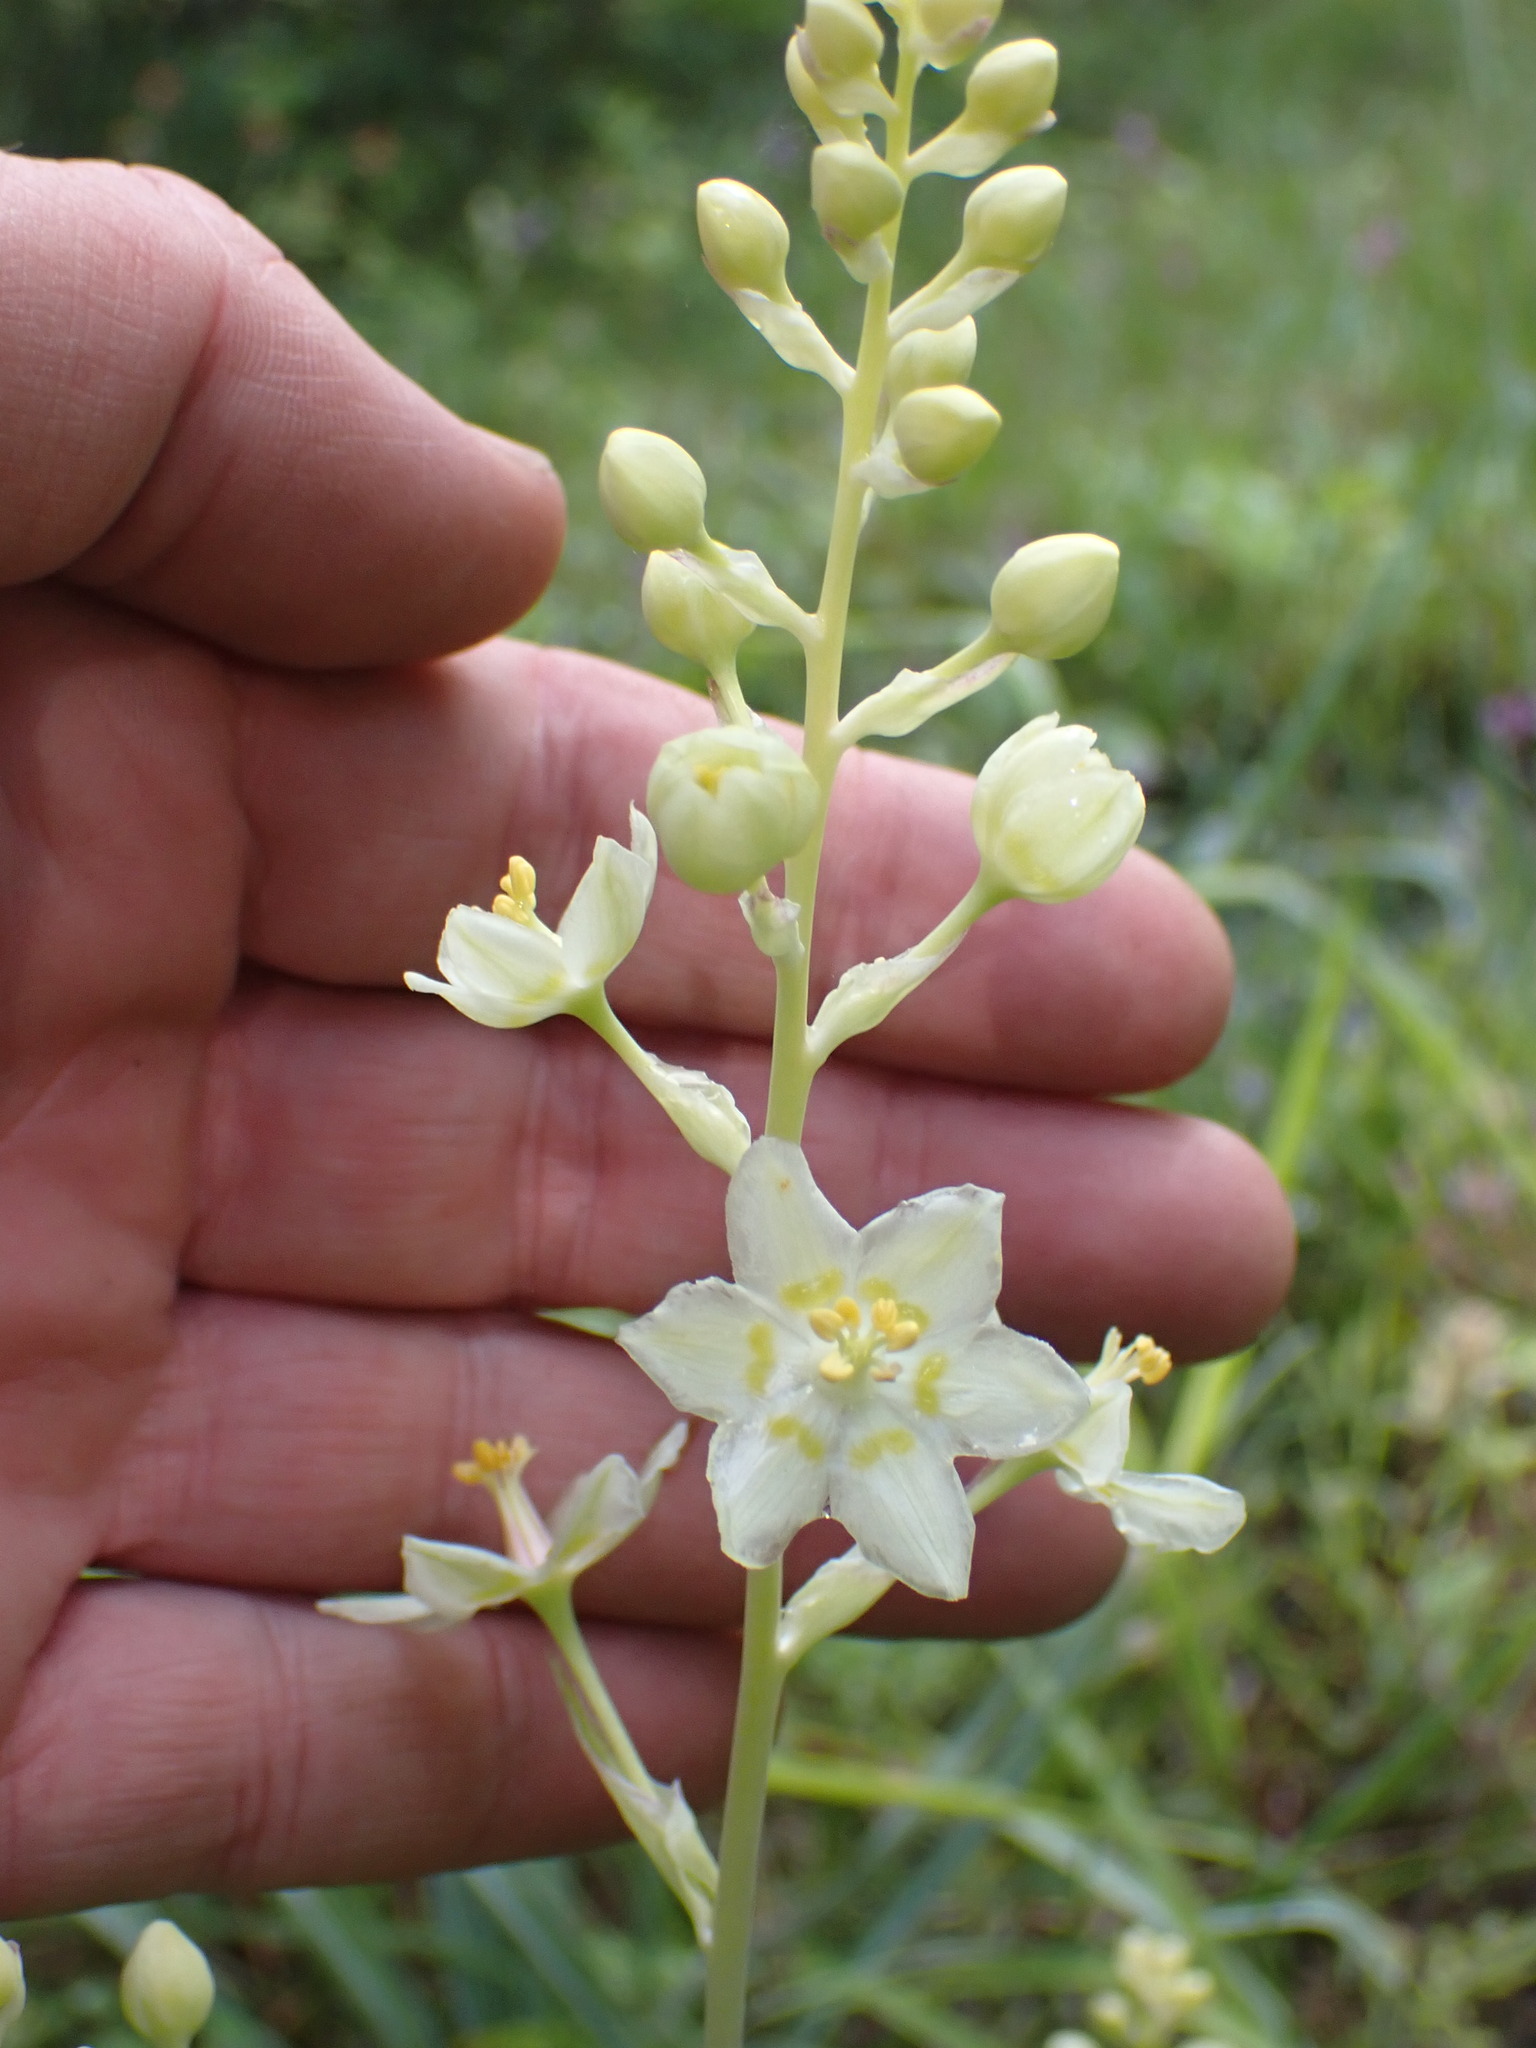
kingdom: Plantae
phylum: Tracheophyta
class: Liliopsida
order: Liliales
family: Melanthiaceae
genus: Anticlea
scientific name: Anticlea elegans
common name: Mountain death camas
